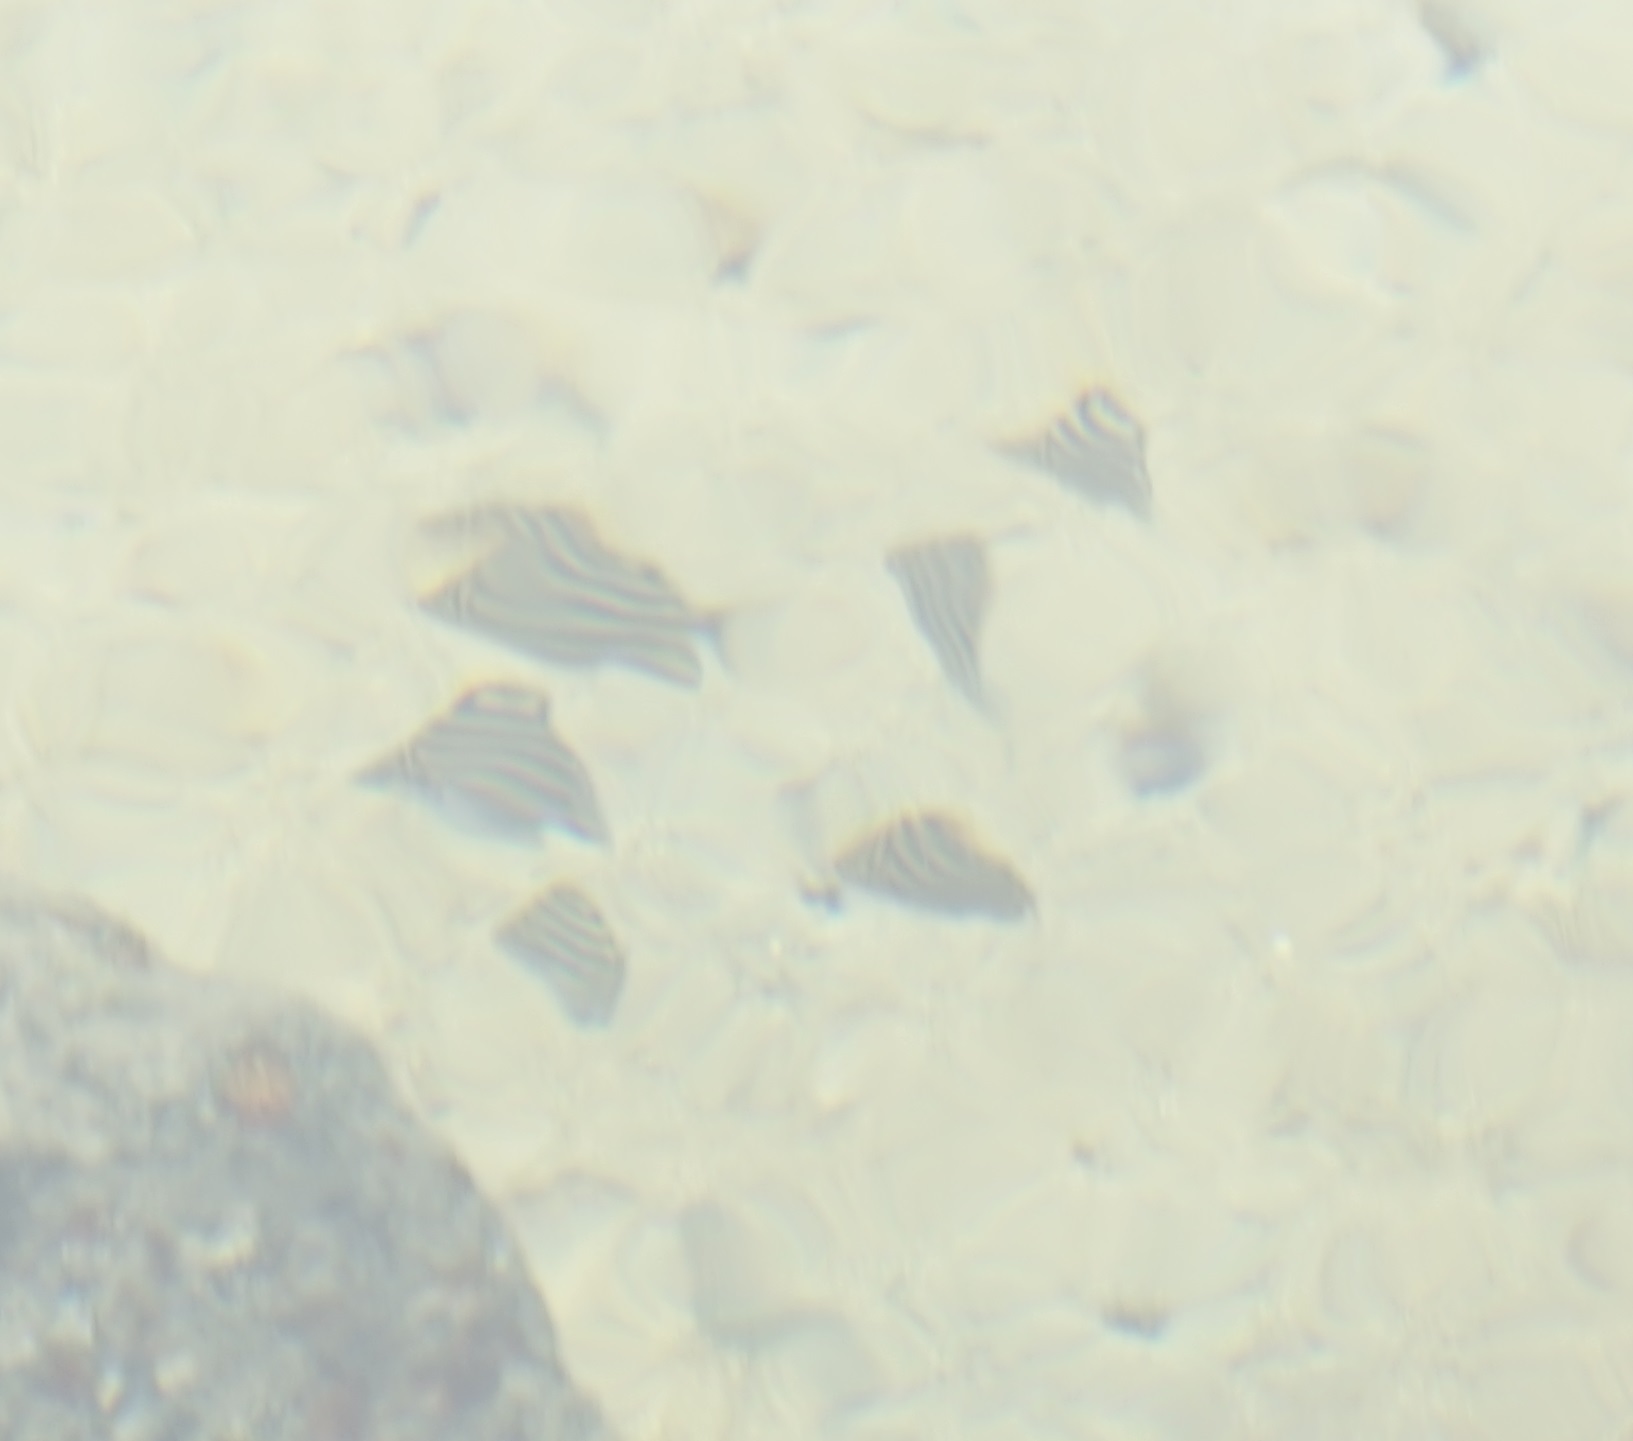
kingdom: Animalia
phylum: Chordata
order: Perciformes
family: Kyphosidae
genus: Microcanthus
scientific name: Microcanthus joyceae
